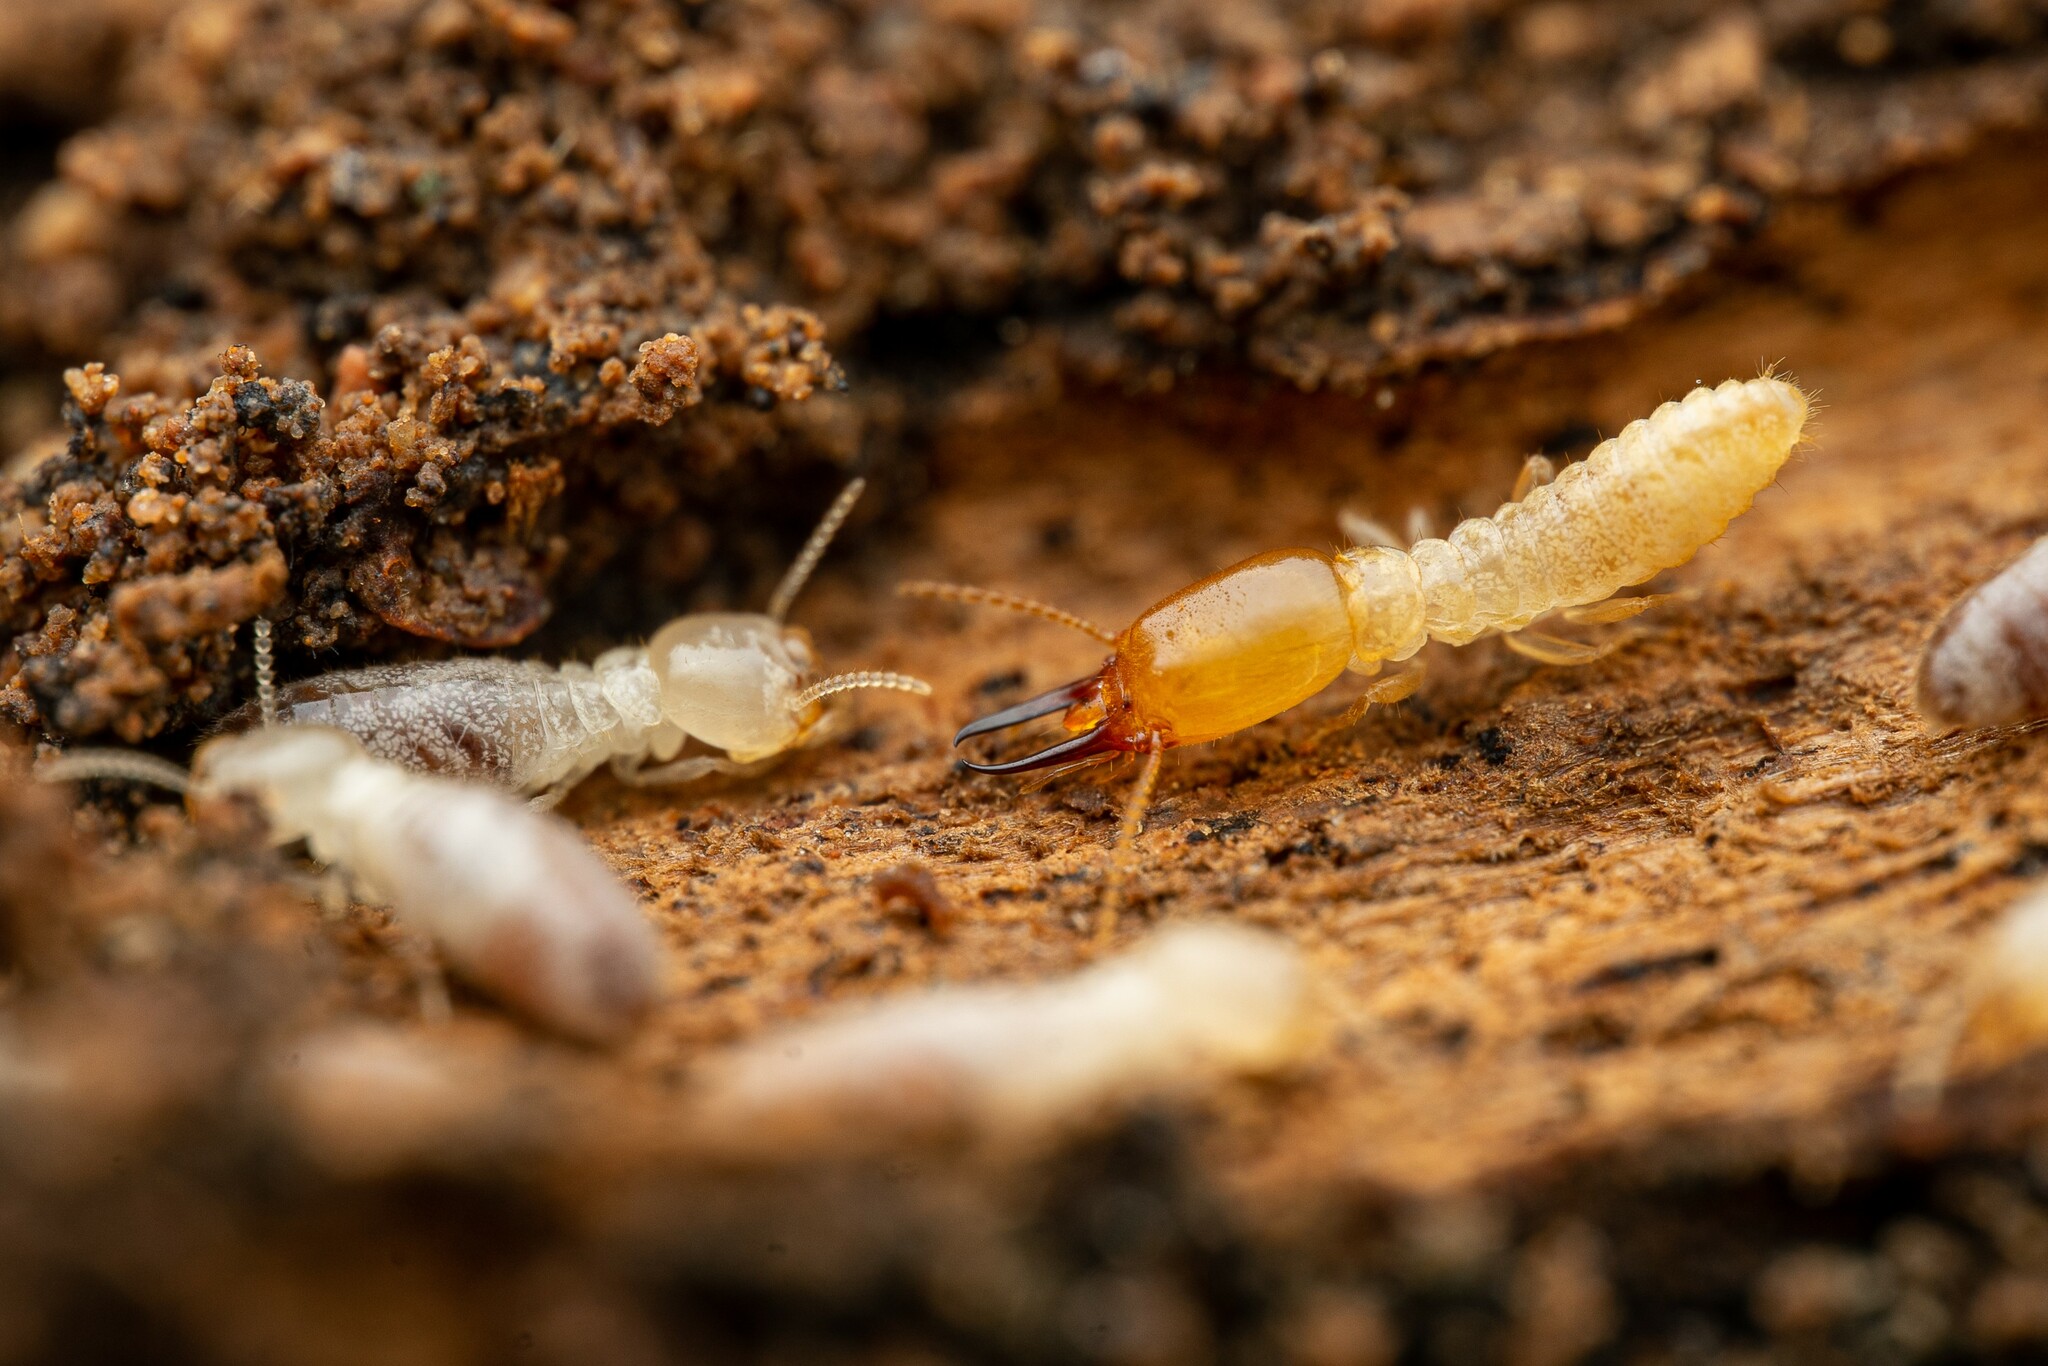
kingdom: Animalia
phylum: Arthropoda
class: Insecta
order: Blattodea
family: Rhinotermitidae
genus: Heterotermes
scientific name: Heterotermes aureus
